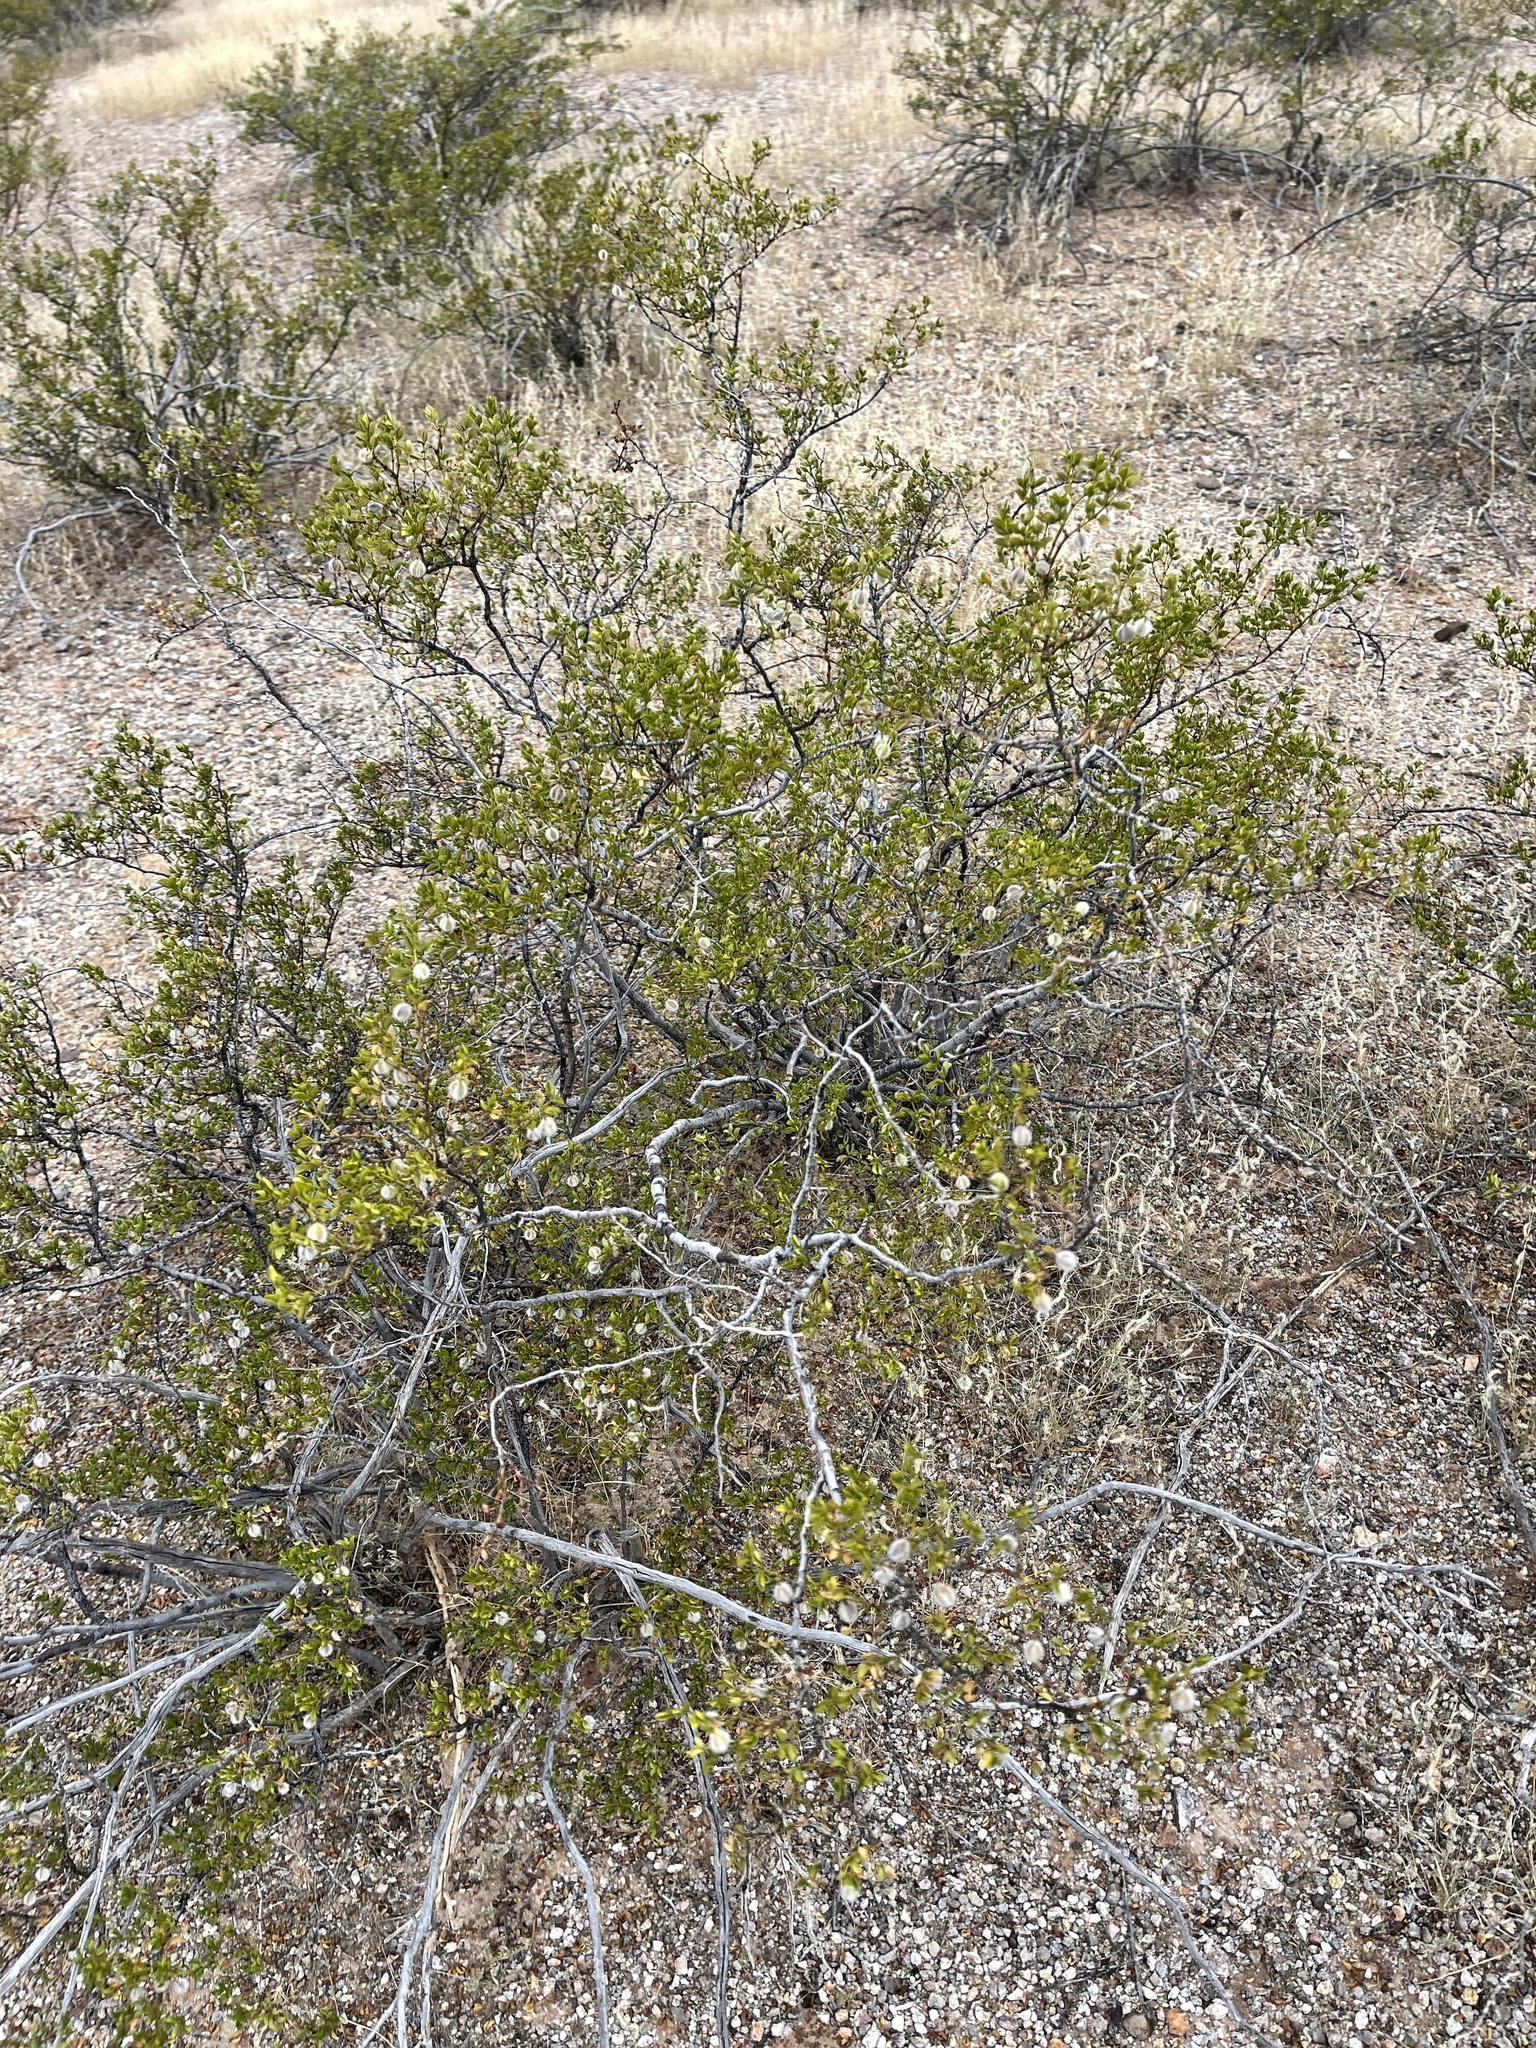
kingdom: Plantae
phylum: Tracheophyta
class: Magnoliopsida
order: Zygophyllales
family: Zygophyllaceae
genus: Larrea
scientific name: Larrea tridentata
